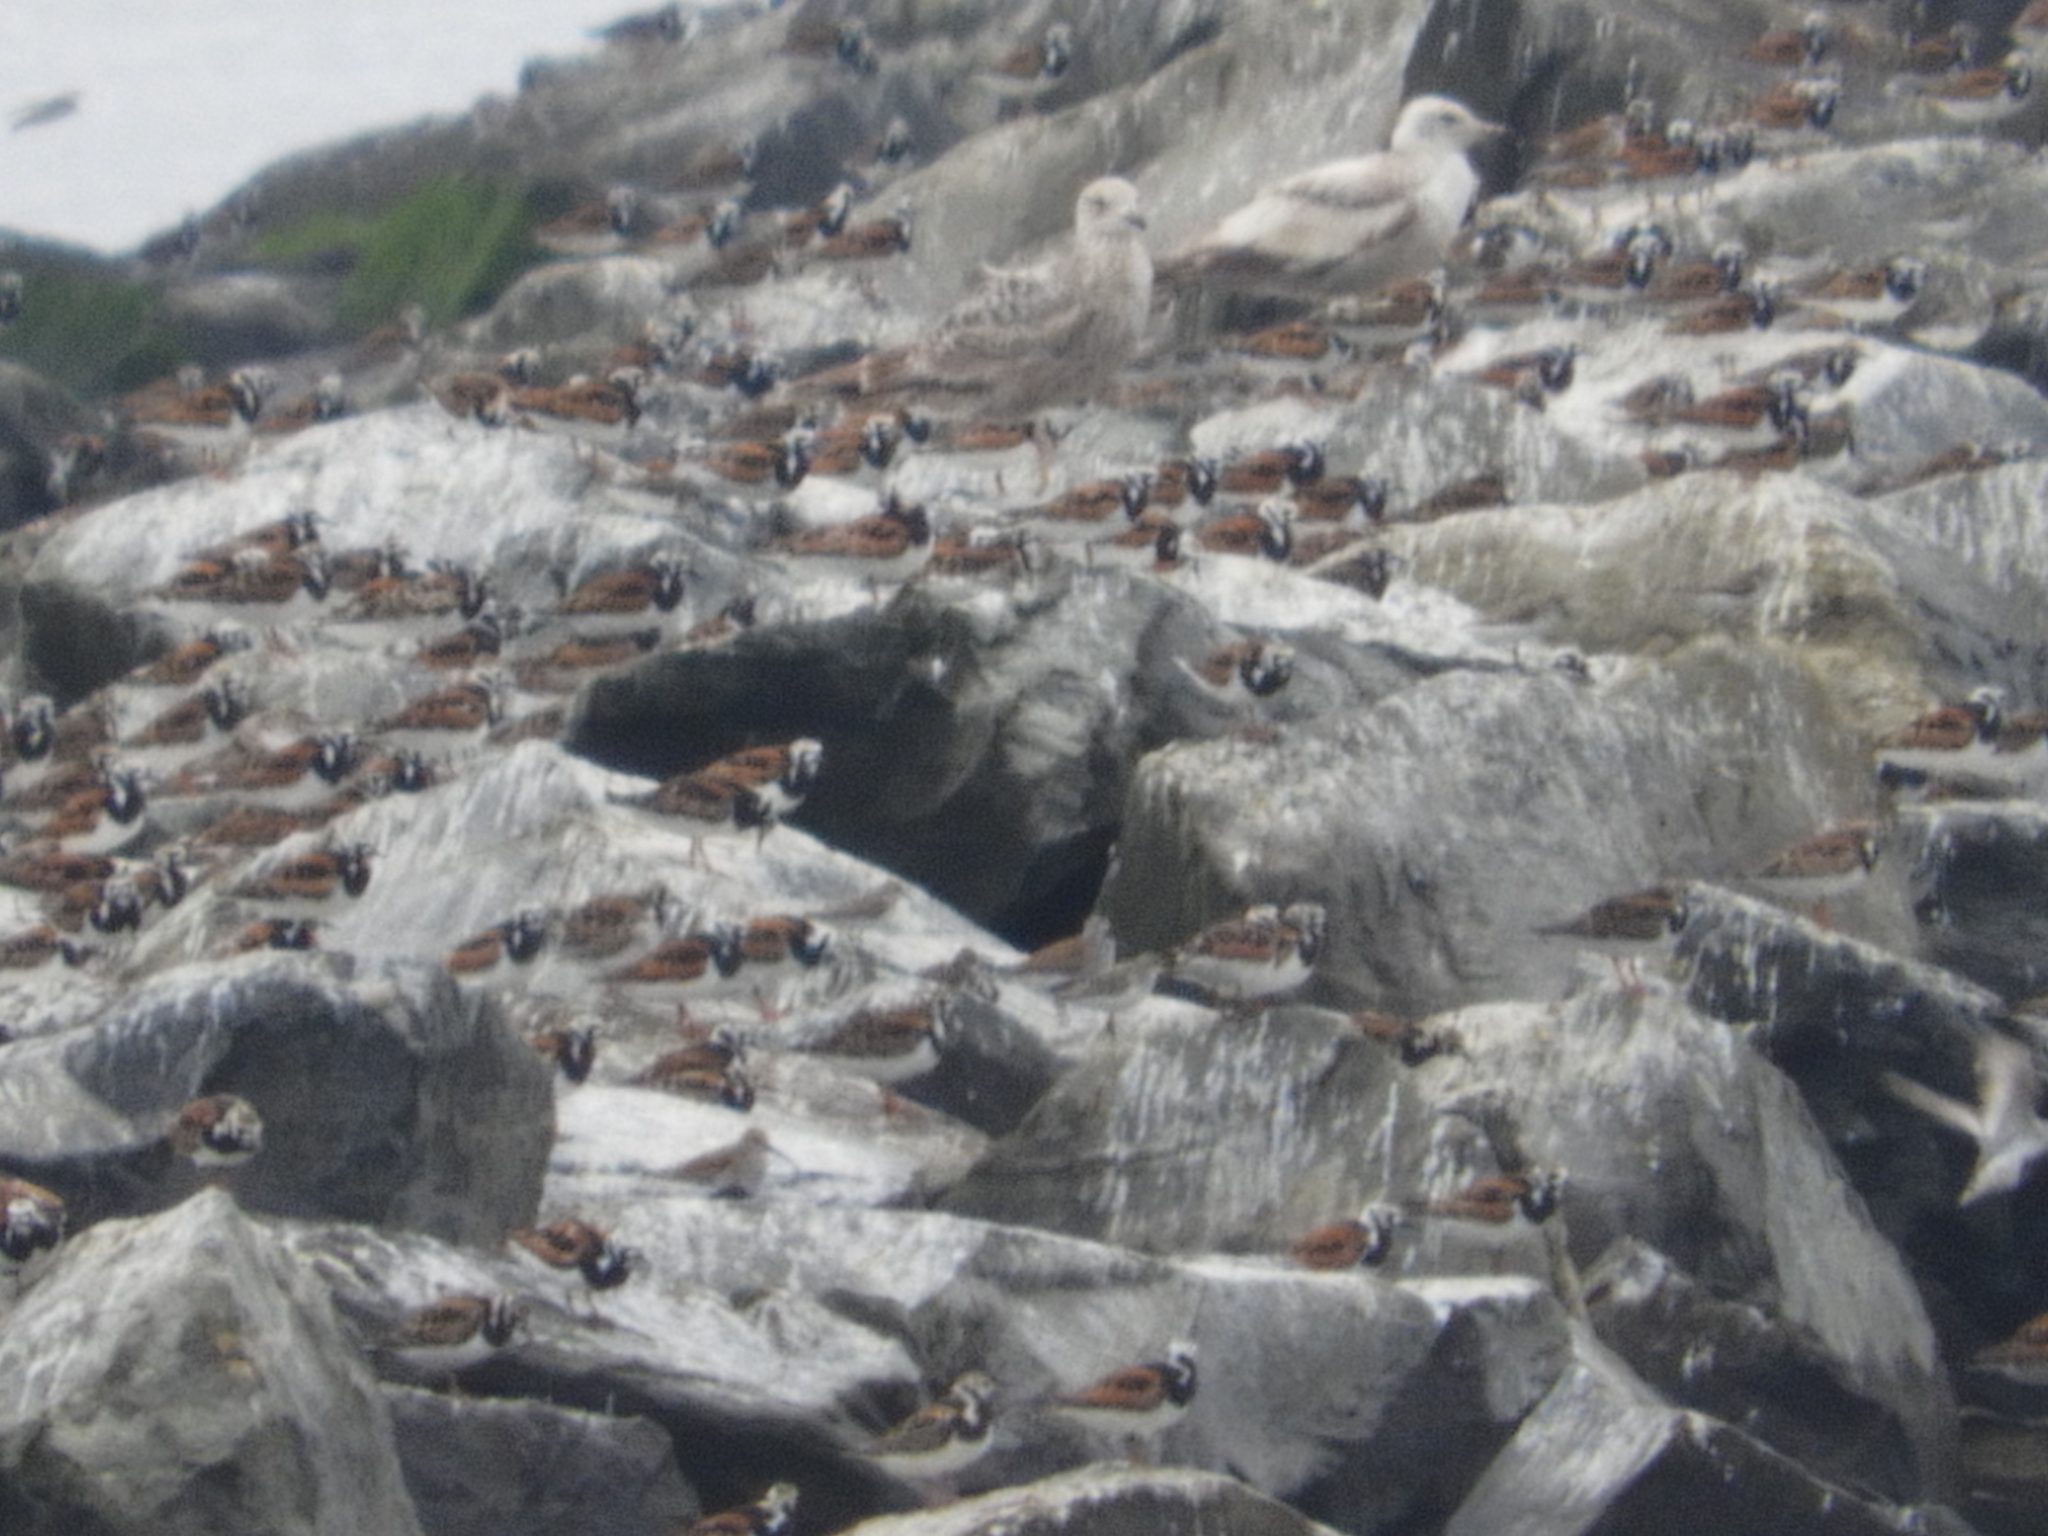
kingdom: Animalia
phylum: Chordata
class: Aves
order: Charadriiformes
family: Scolopacidae
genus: Arenaria
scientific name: Arenaria interpres
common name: Ruddy turnstone
